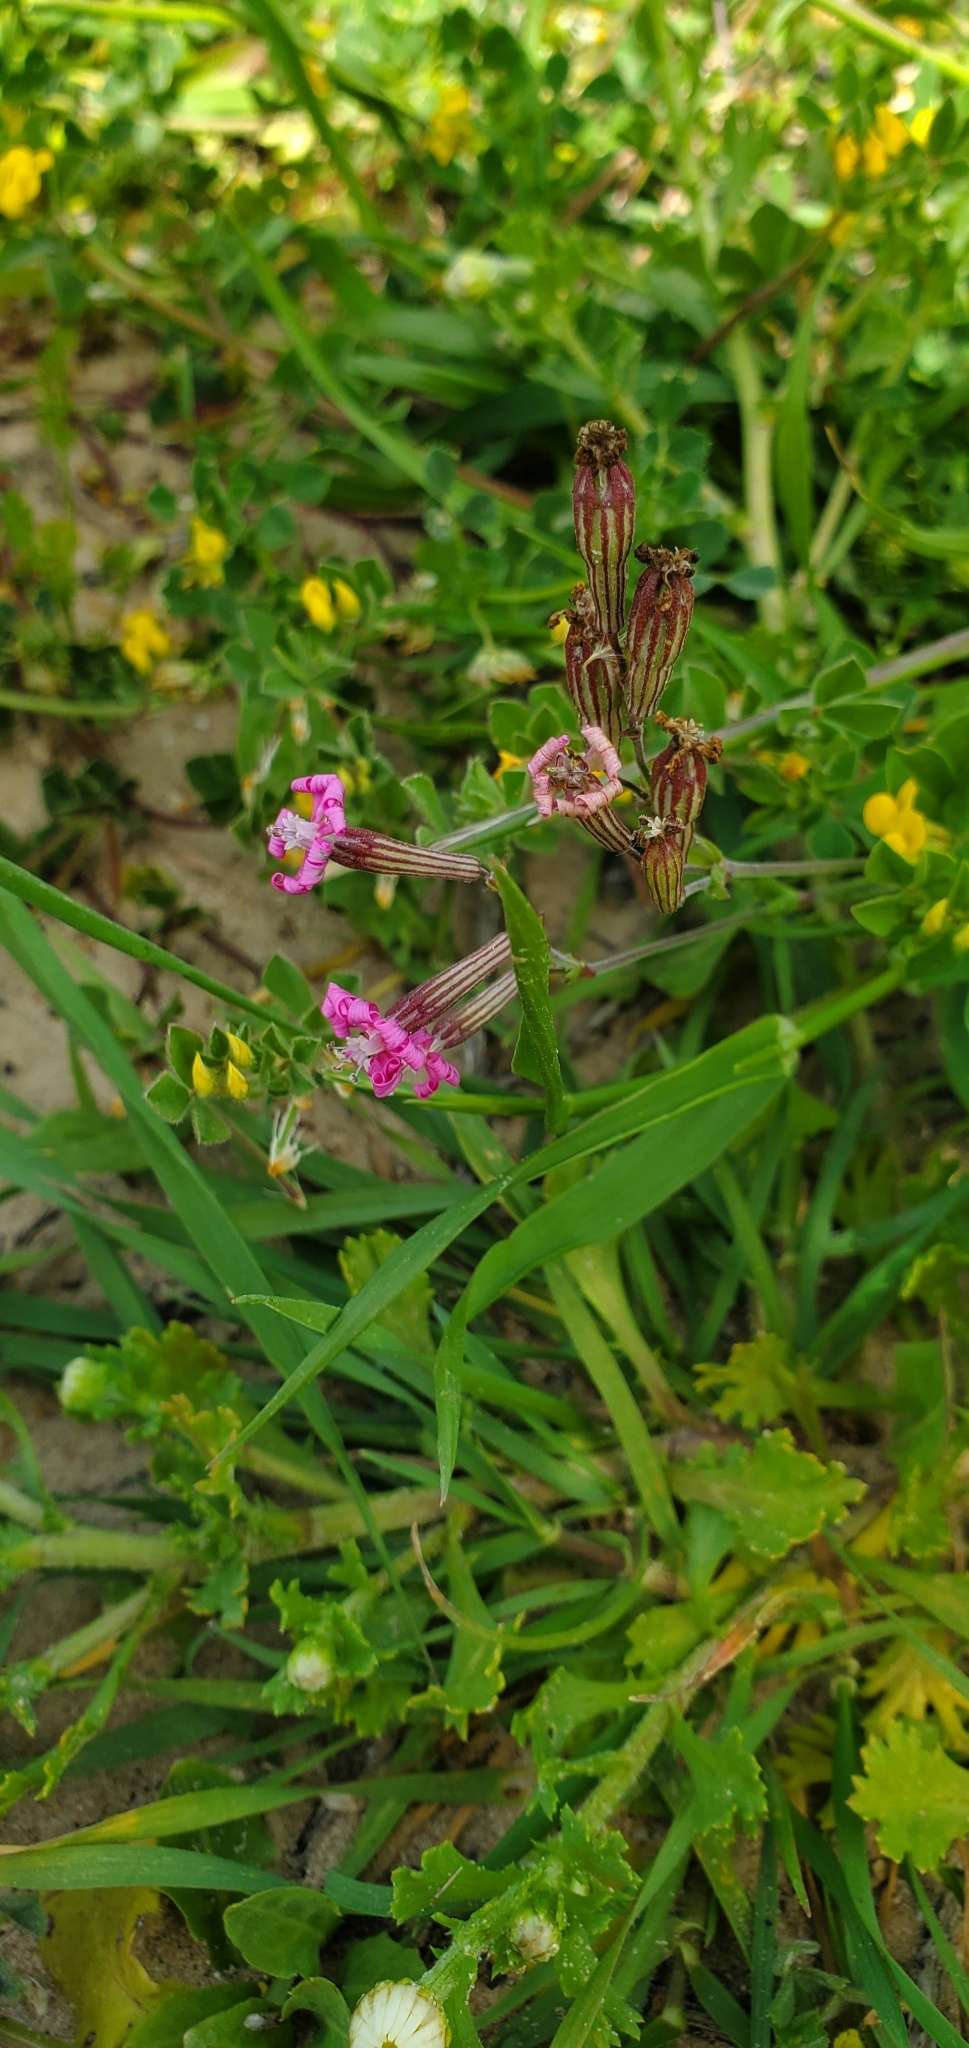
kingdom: Plantae
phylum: Tracheophyta
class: Magnoliopsida
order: Caryophyllales
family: Caryophyllaceae
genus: Silene
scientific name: Silene colorata
